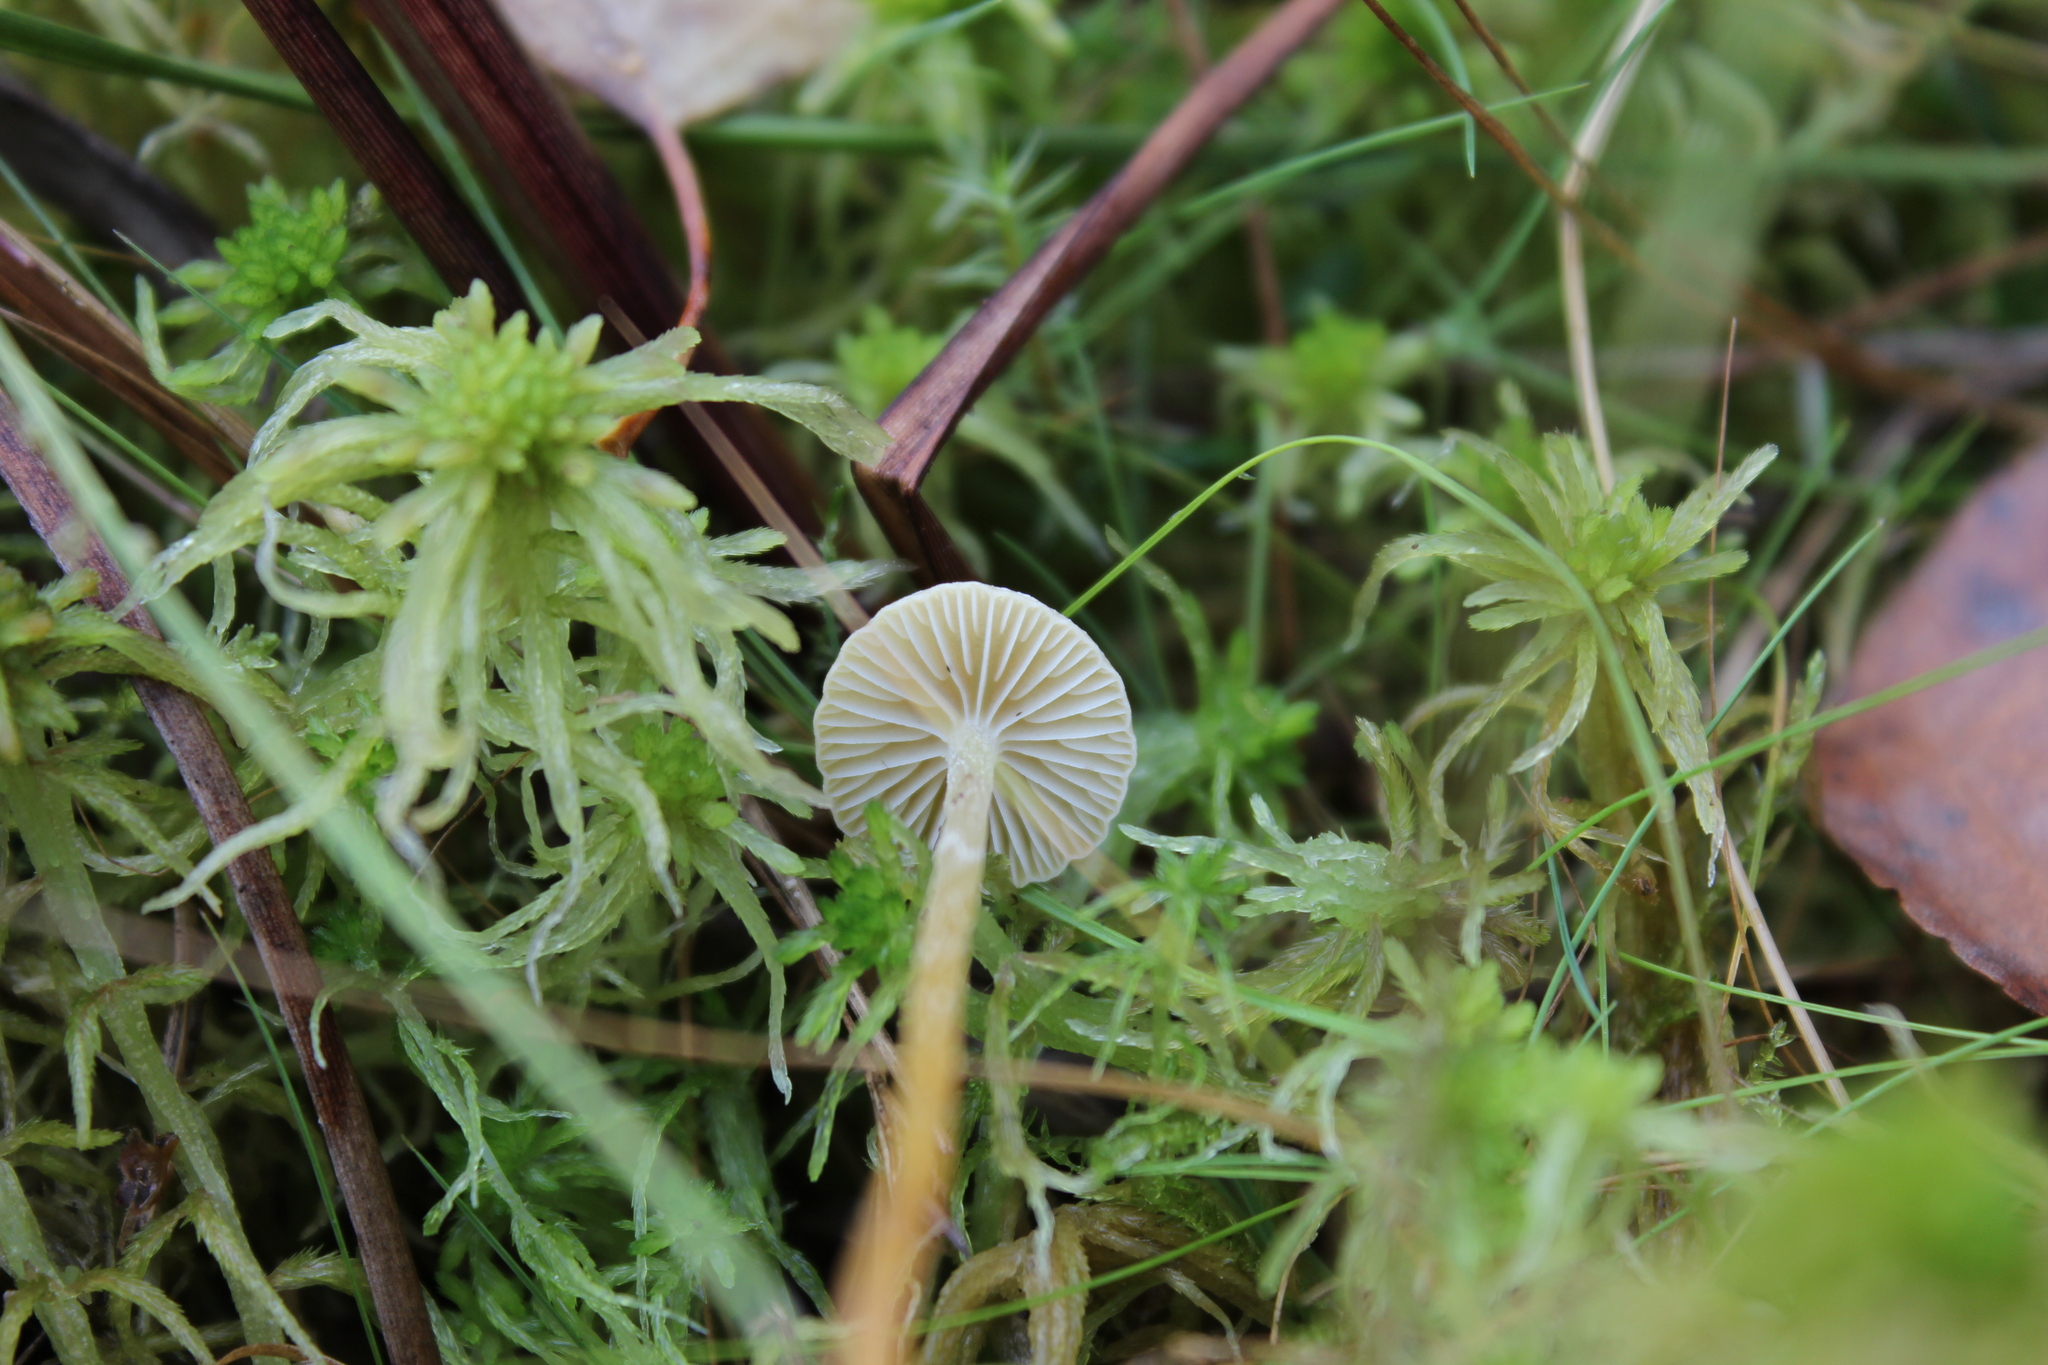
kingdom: Fungi
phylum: Basidiomycota
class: Agaricomycetes
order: Agaricales
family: Strophariaceae
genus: Hypholoma
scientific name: Hypholoma elongatum
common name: Sphagnum brownie
